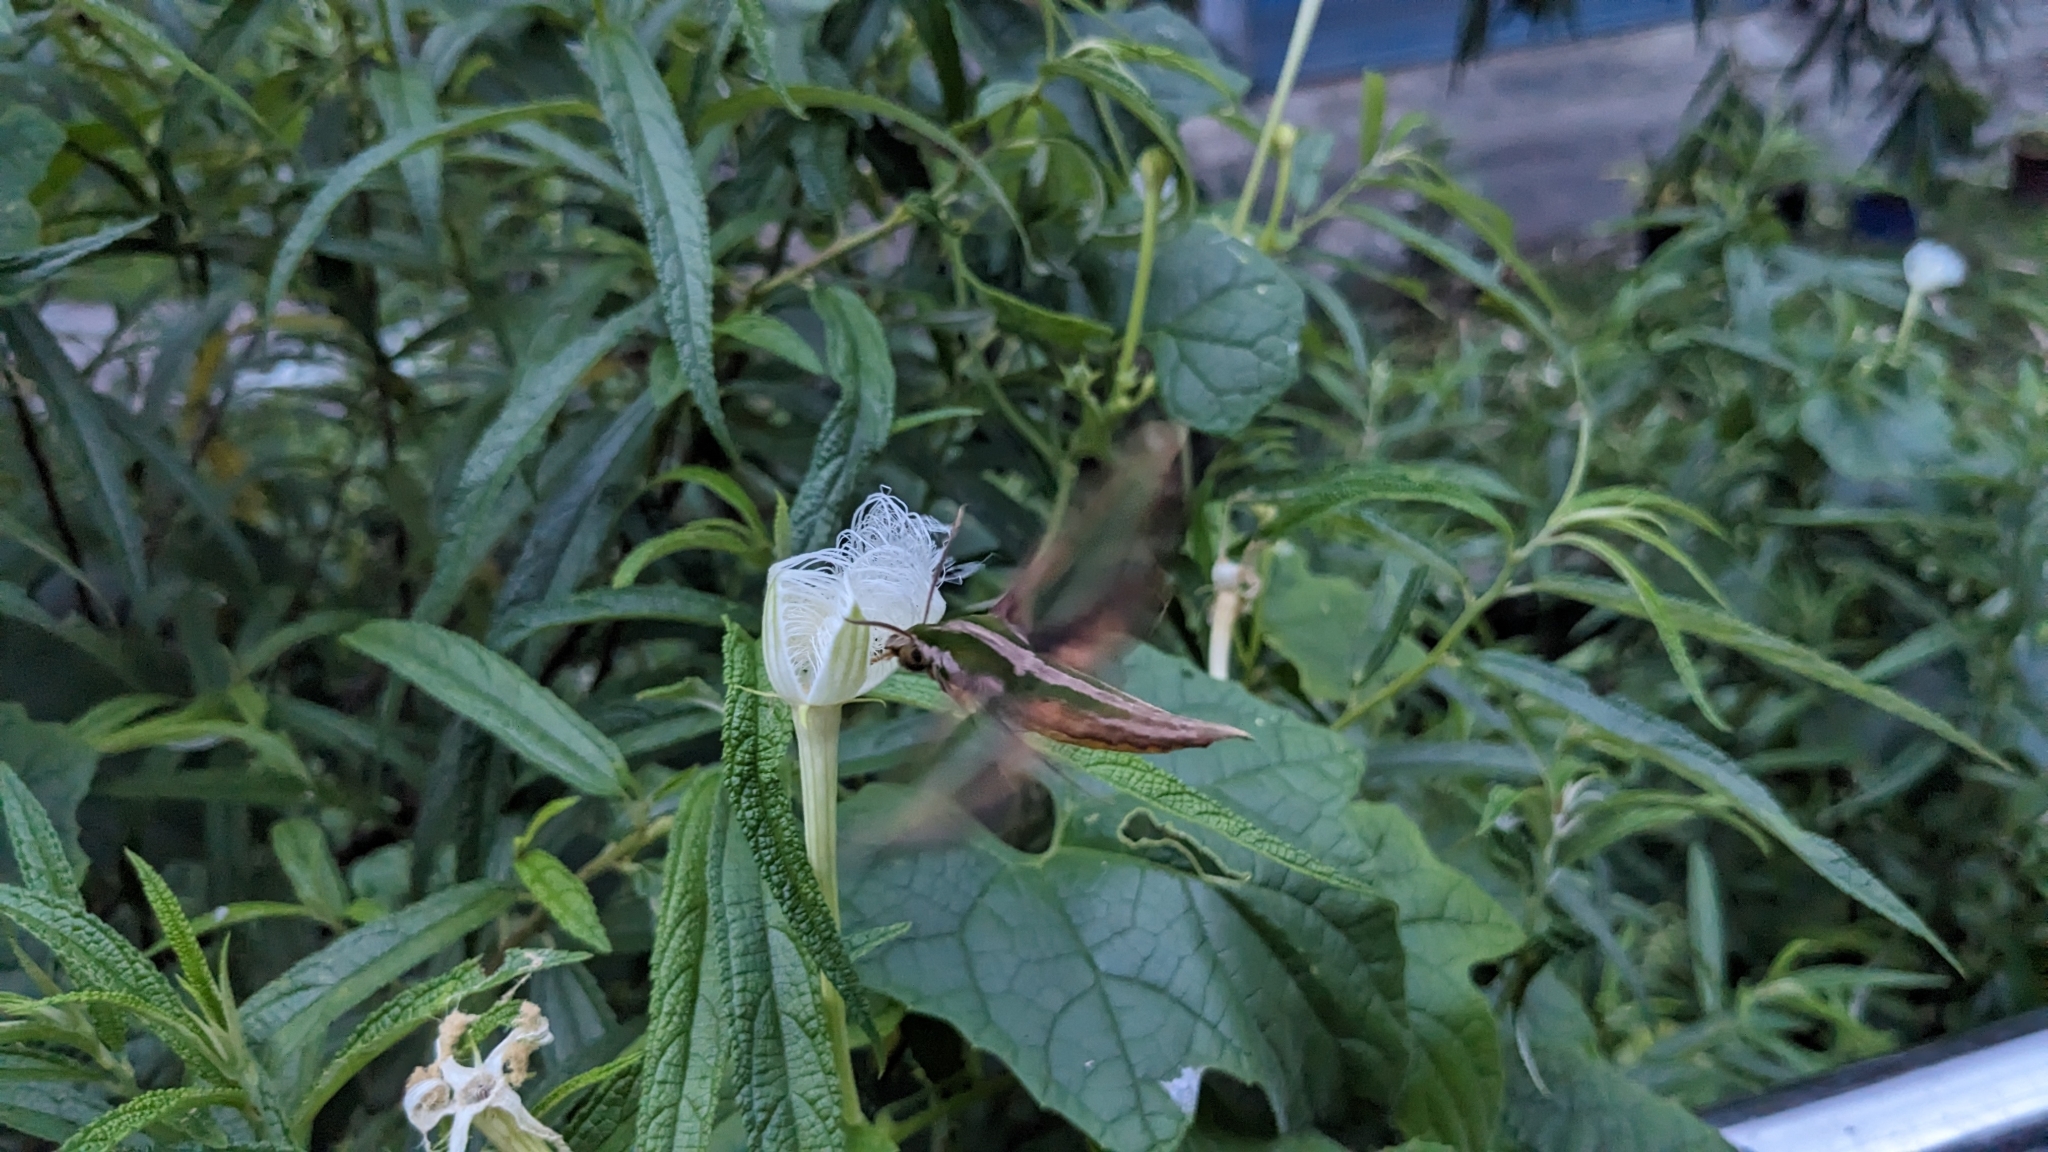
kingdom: Animalia
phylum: Arthropoda
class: Insecta
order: Lepidoptera
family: Sphingidae
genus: Pergesa
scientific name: Pergesa acteus
